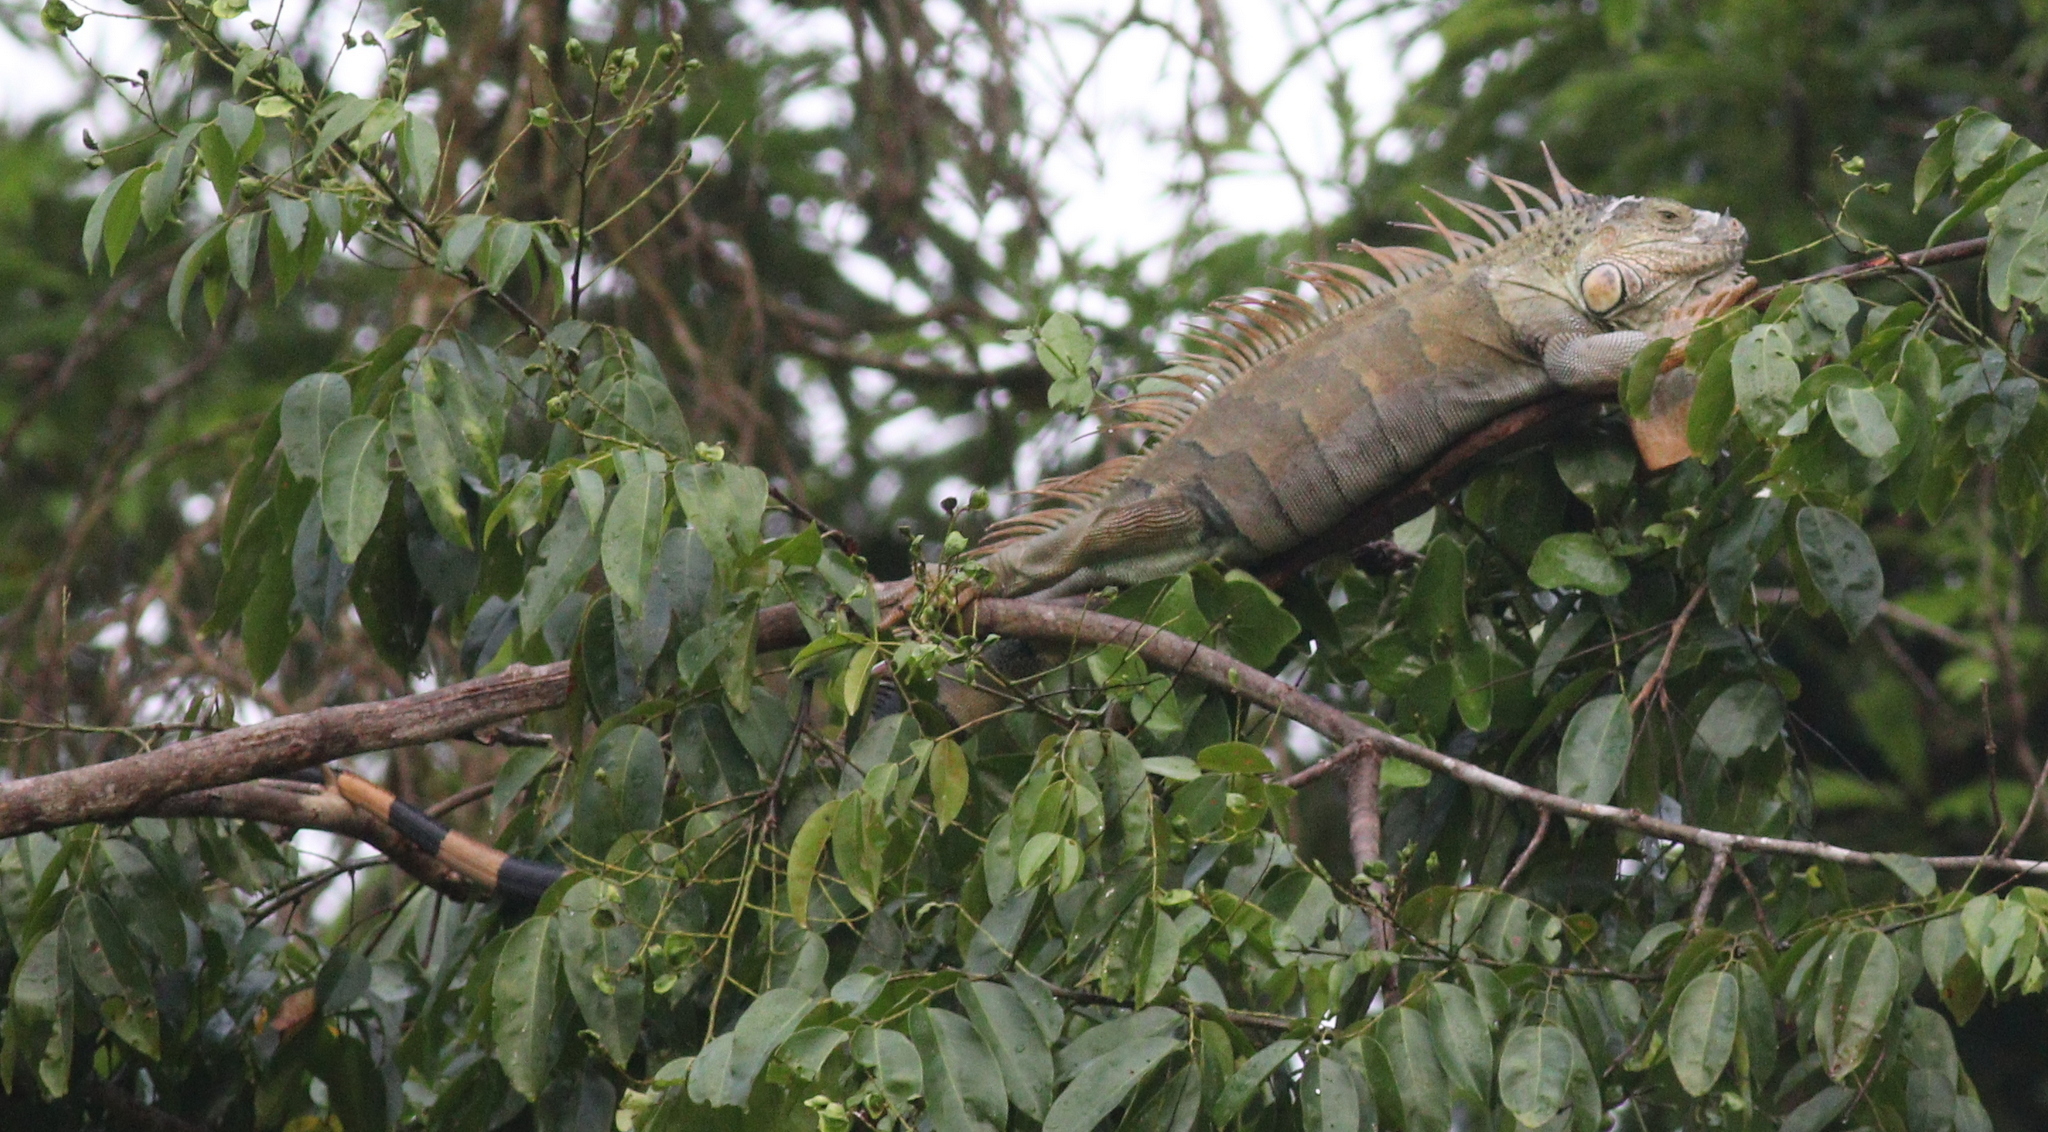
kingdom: Animalia
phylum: Chordata
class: Squamata
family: Iguanidae
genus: Iguana
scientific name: Iguana iguana
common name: Green iguana
